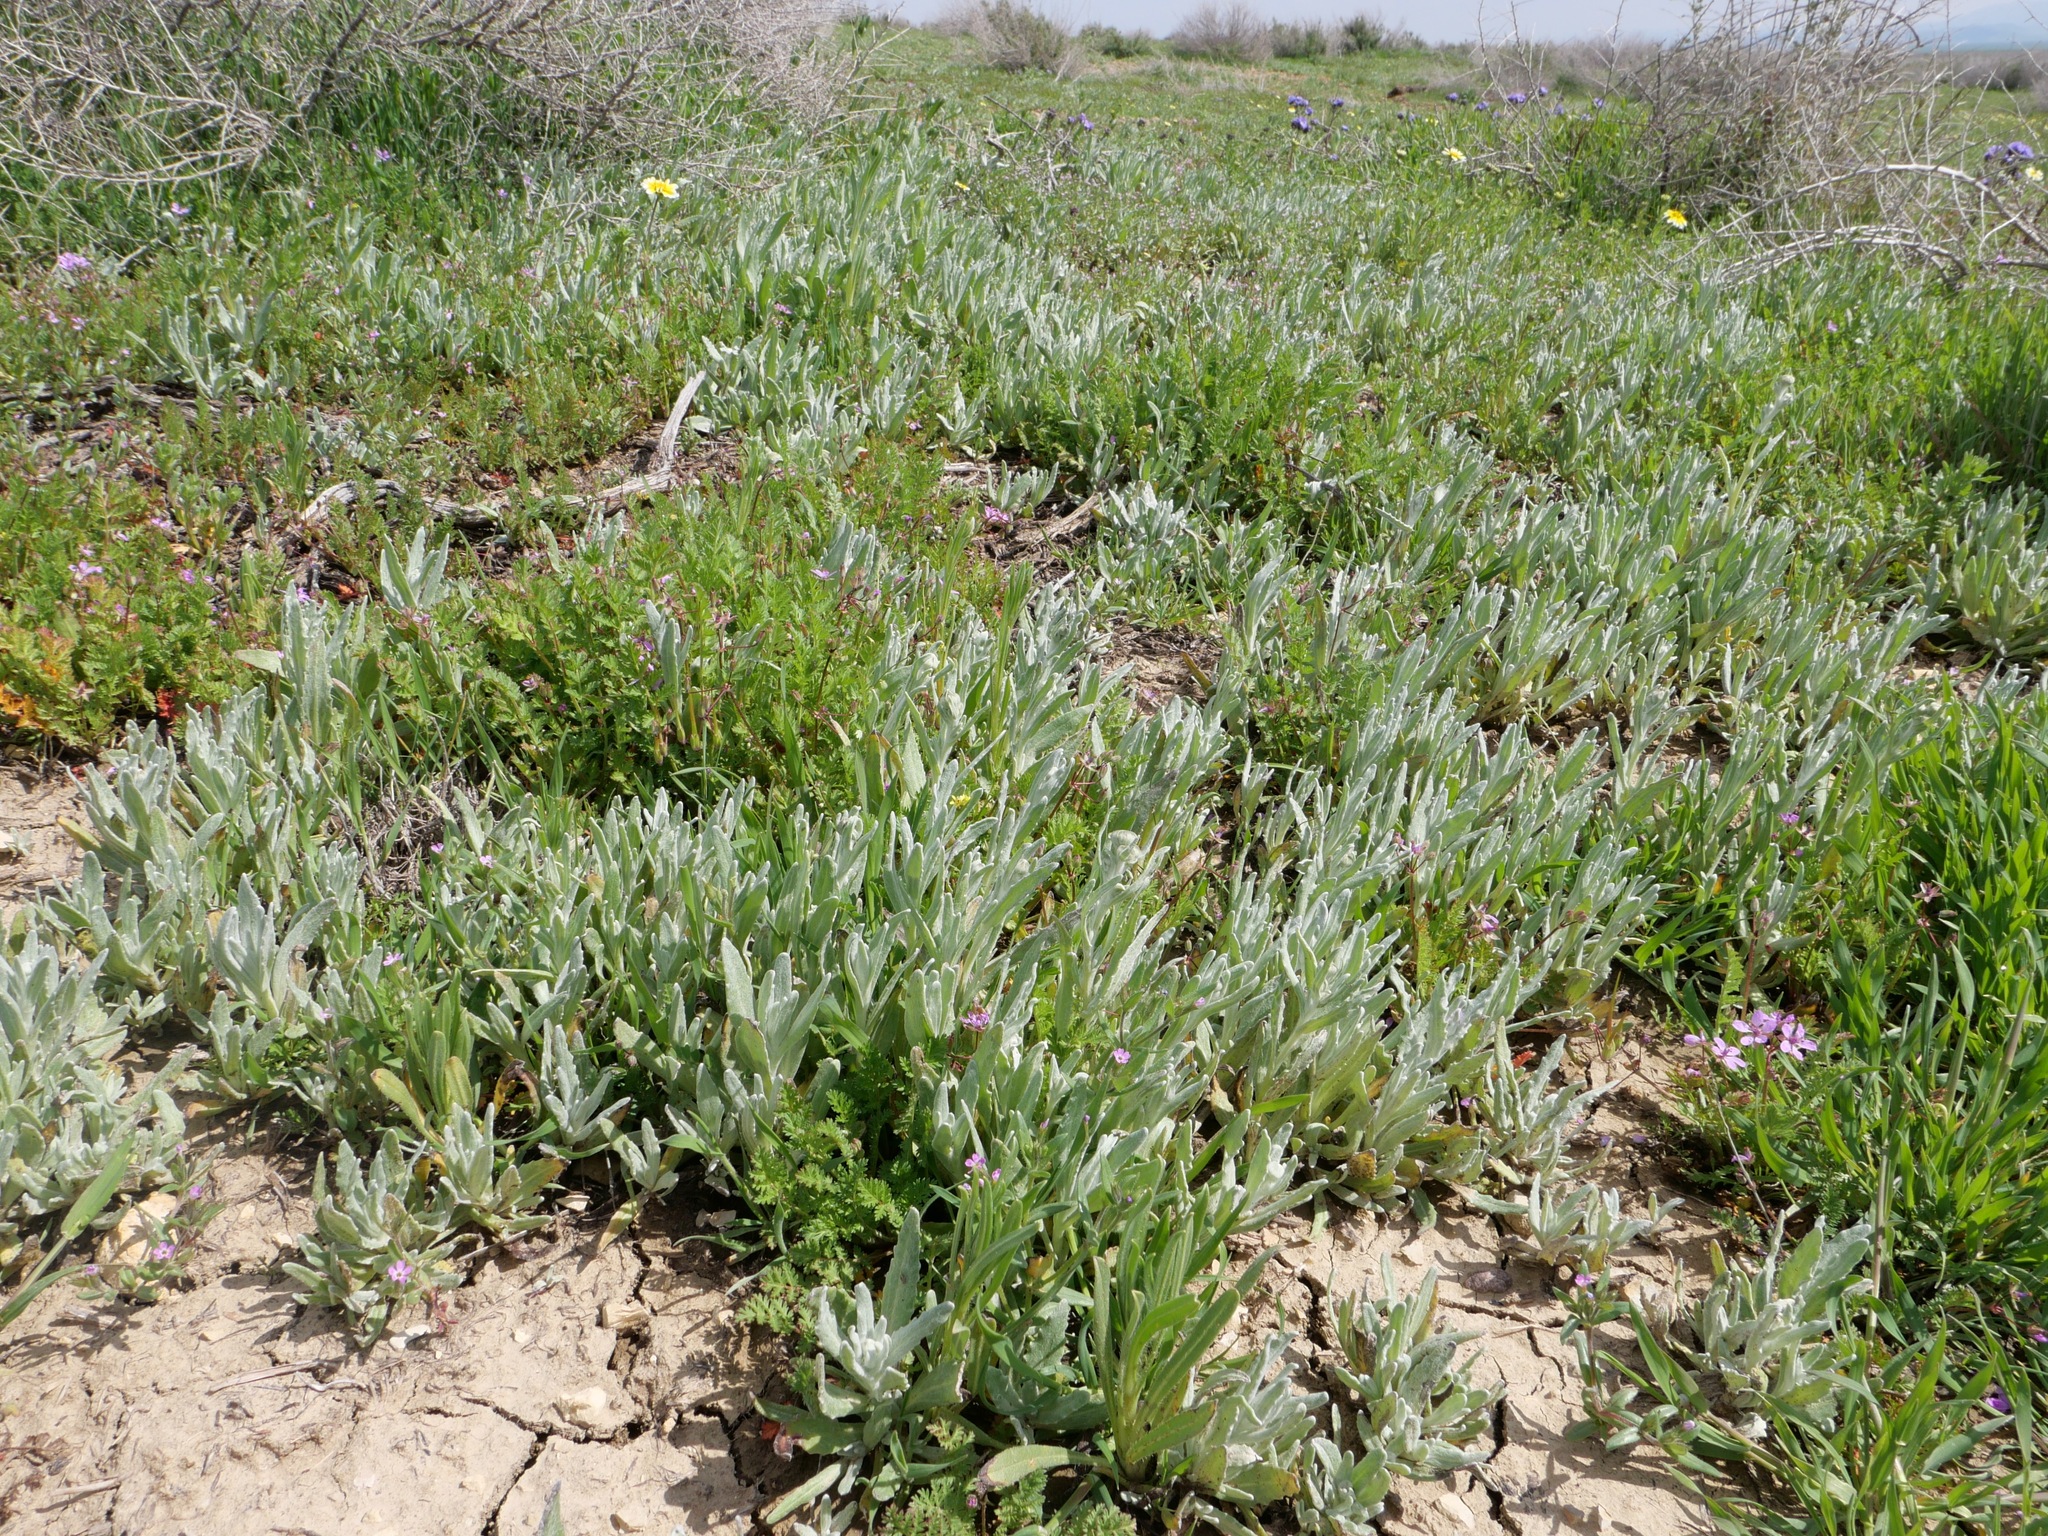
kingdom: Plantae
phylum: Tracheophyta
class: Magnoliopsida
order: Asterales
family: Asteraceae
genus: Monolopia
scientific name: Monolopia stricta
